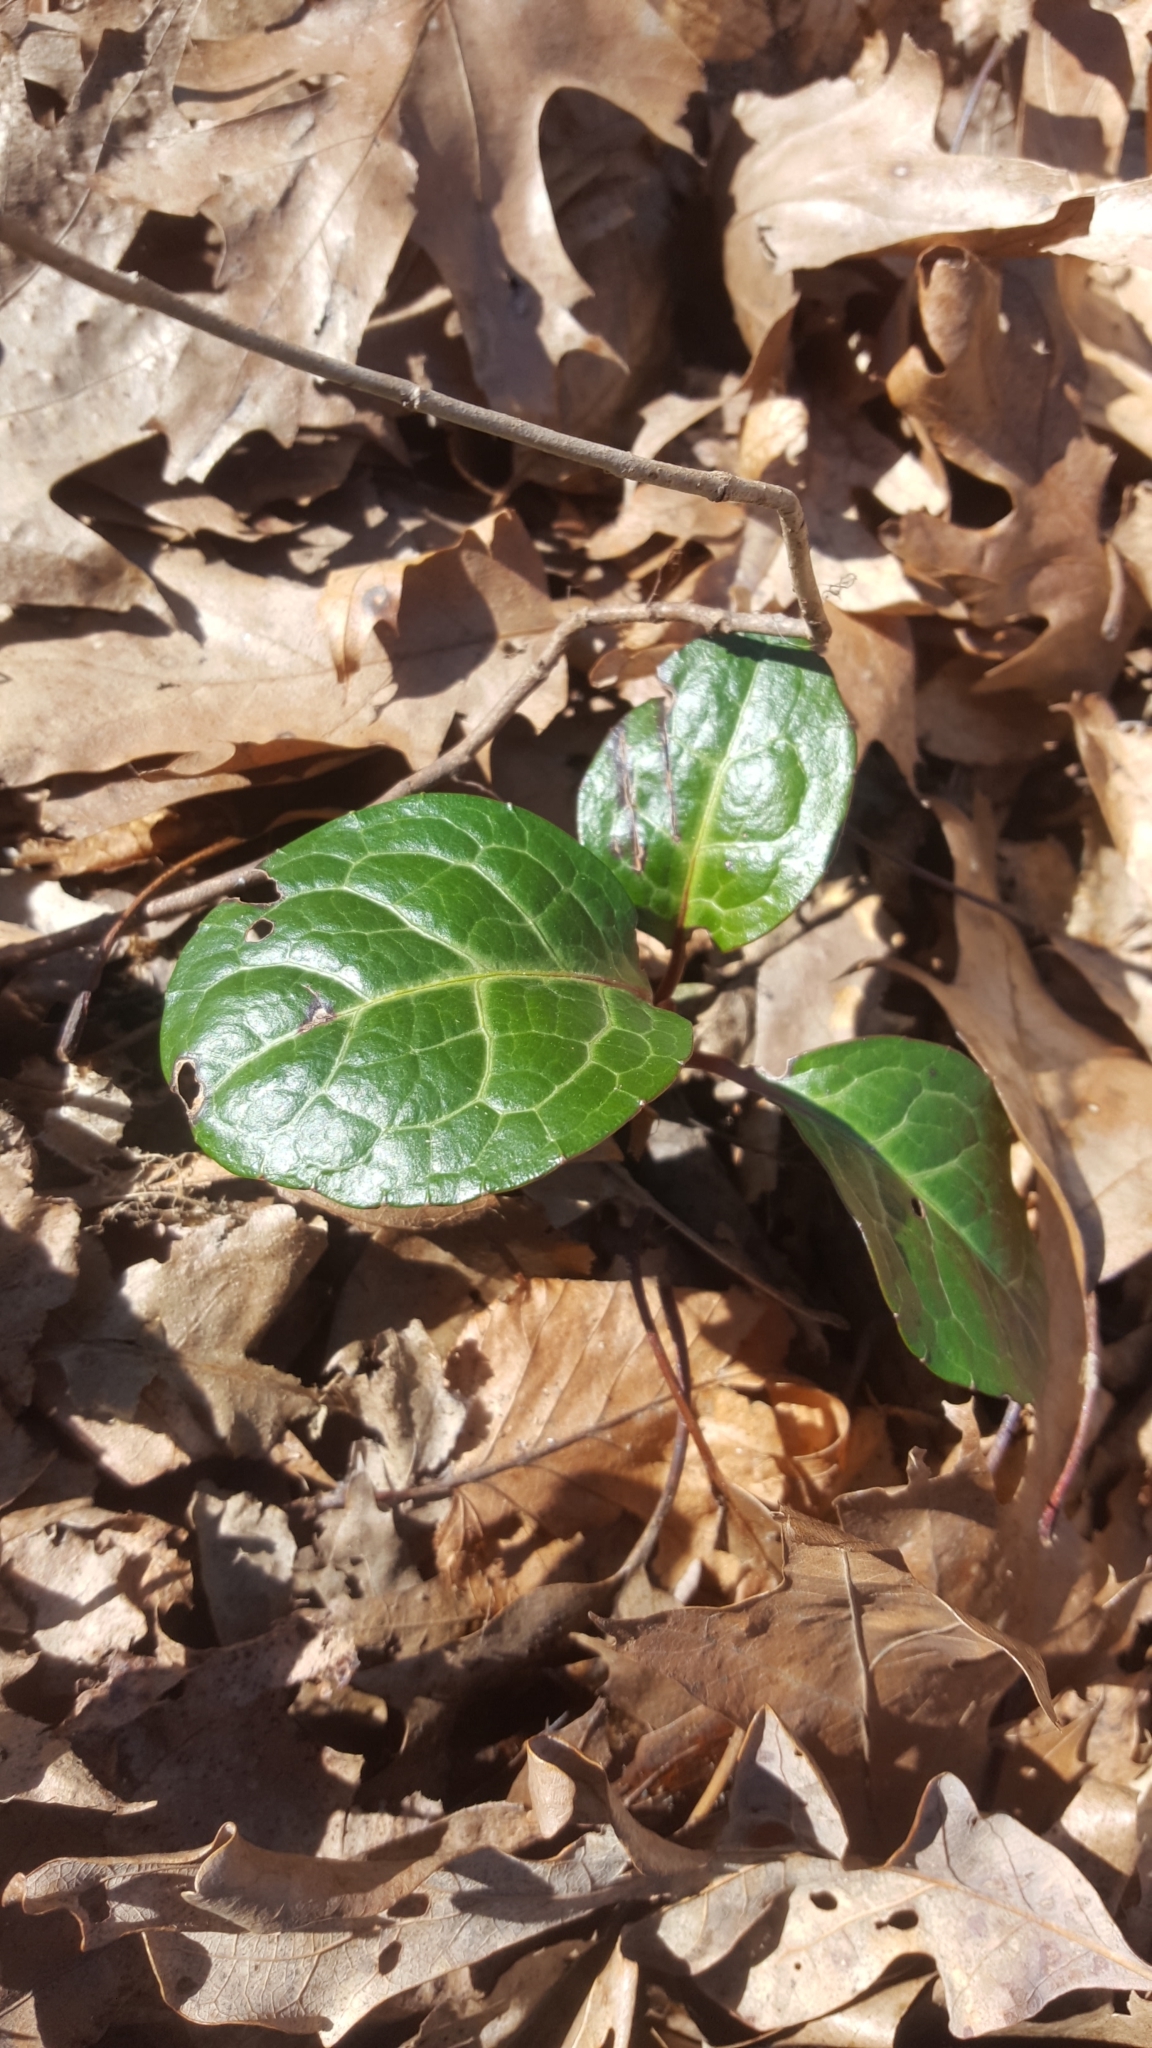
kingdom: Plantae
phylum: Tracheophyta
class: Magnoliopsida
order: Ericales
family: Ericaceae
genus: Pyrola
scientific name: Pyrola americana
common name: American wintergreen
